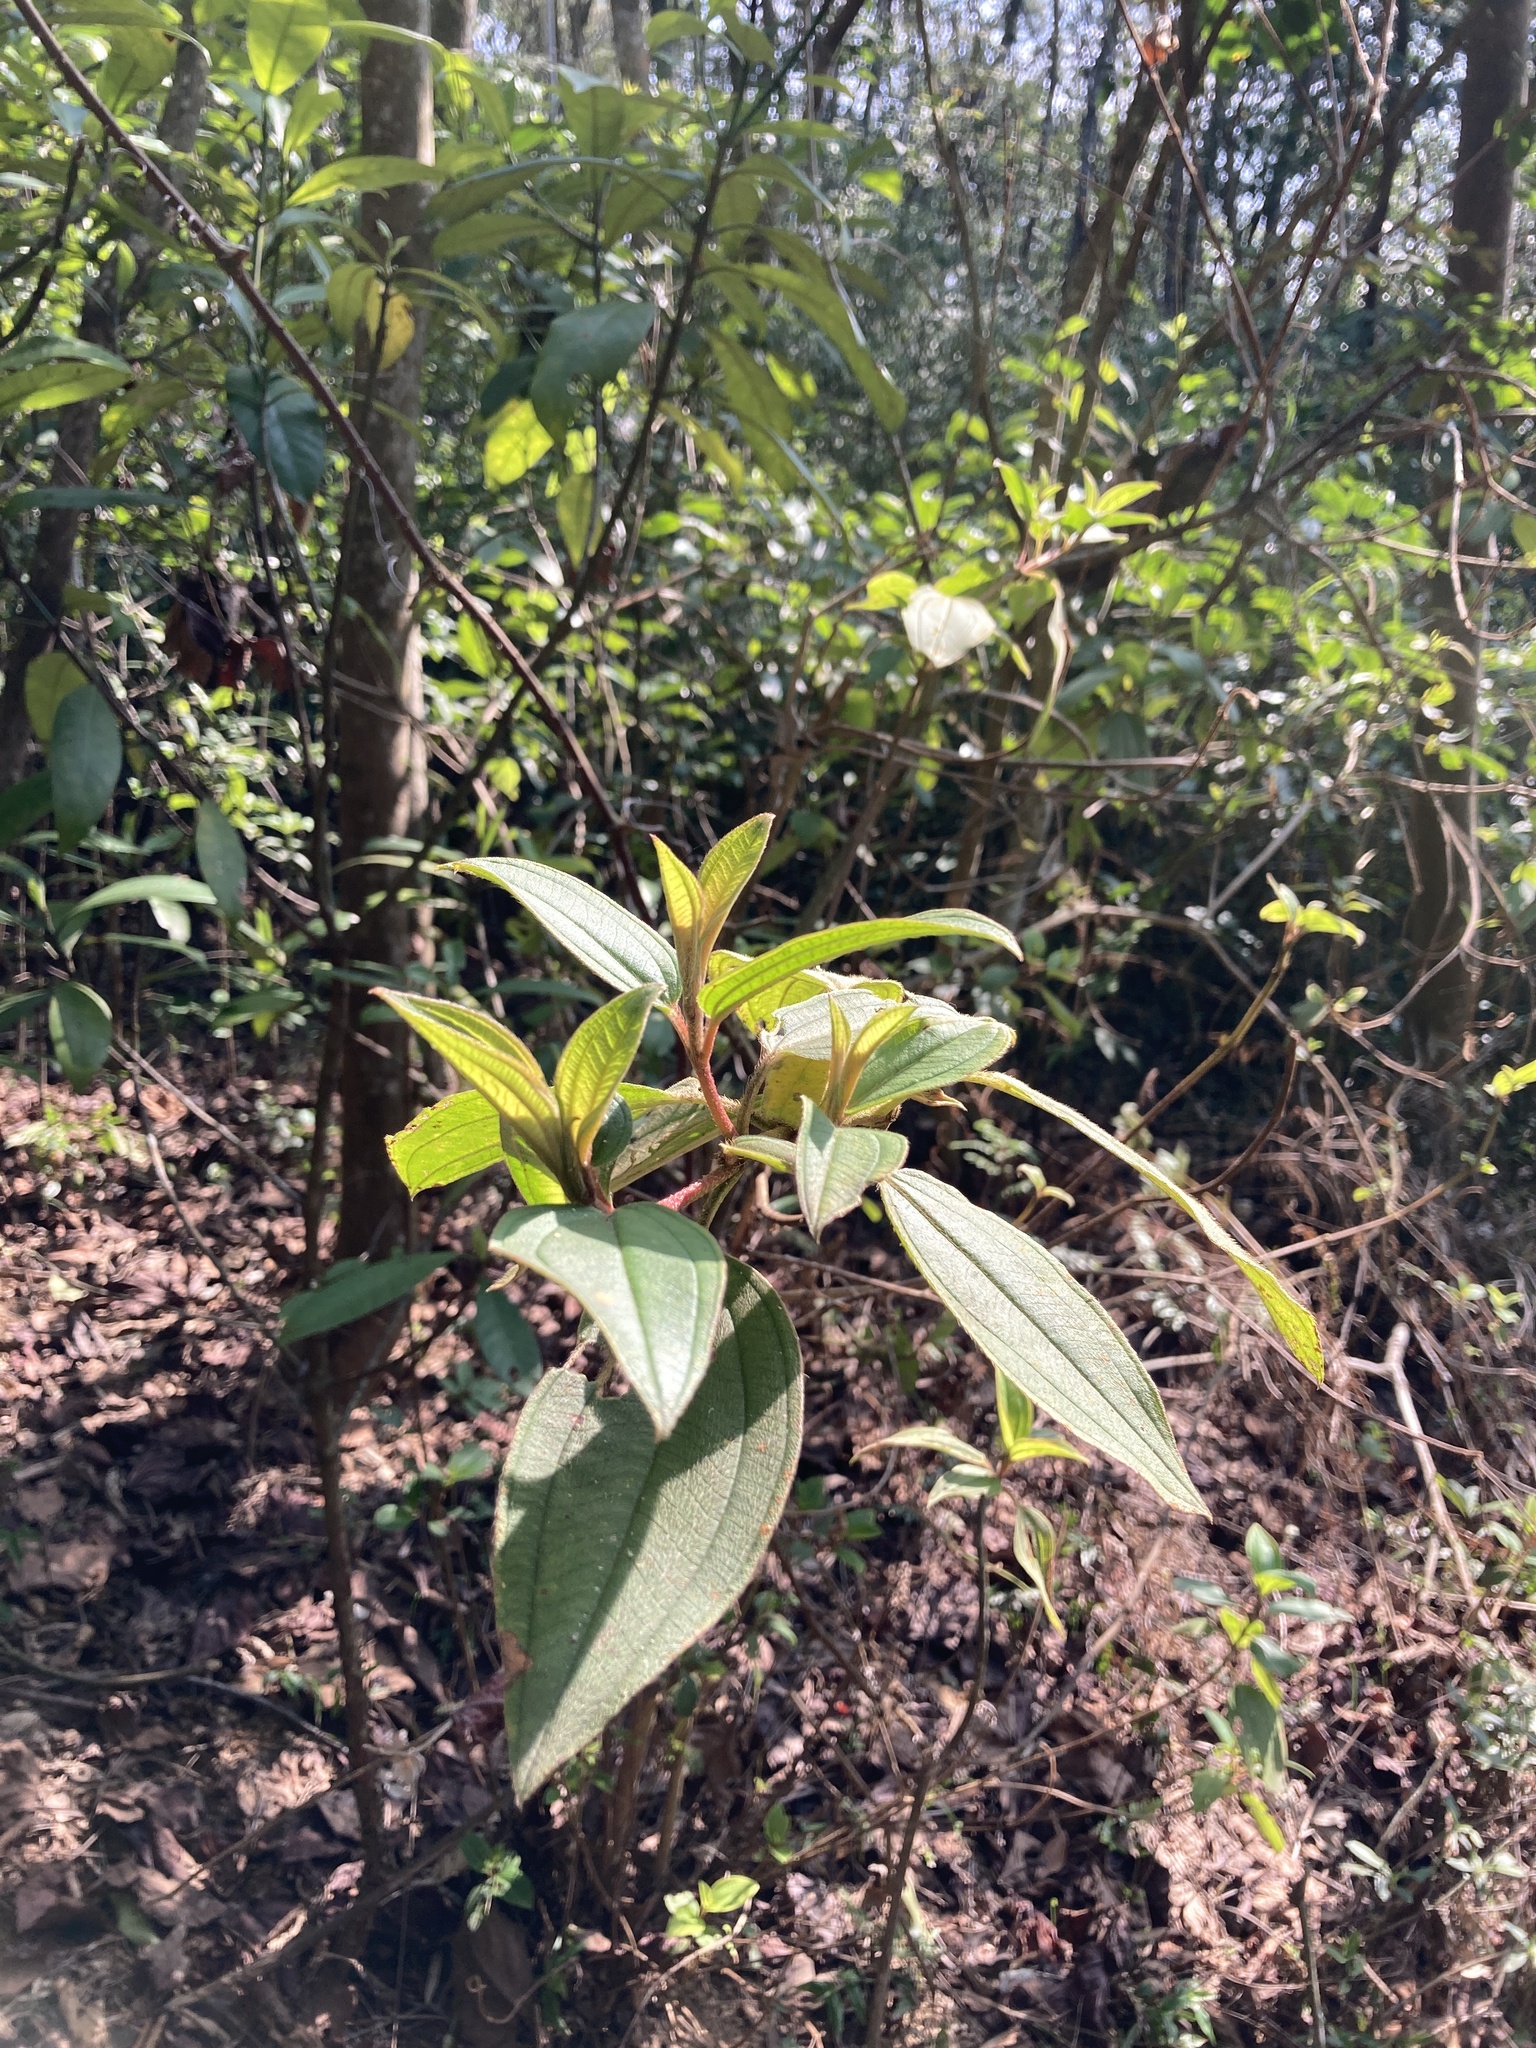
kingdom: Plantae
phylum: Tracheophyta
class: Magnoliopsida
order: Myrtales
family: Melastomataceae
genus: Melastoma
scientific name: Melastoma malabathricum
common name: Indian-rhododendron
